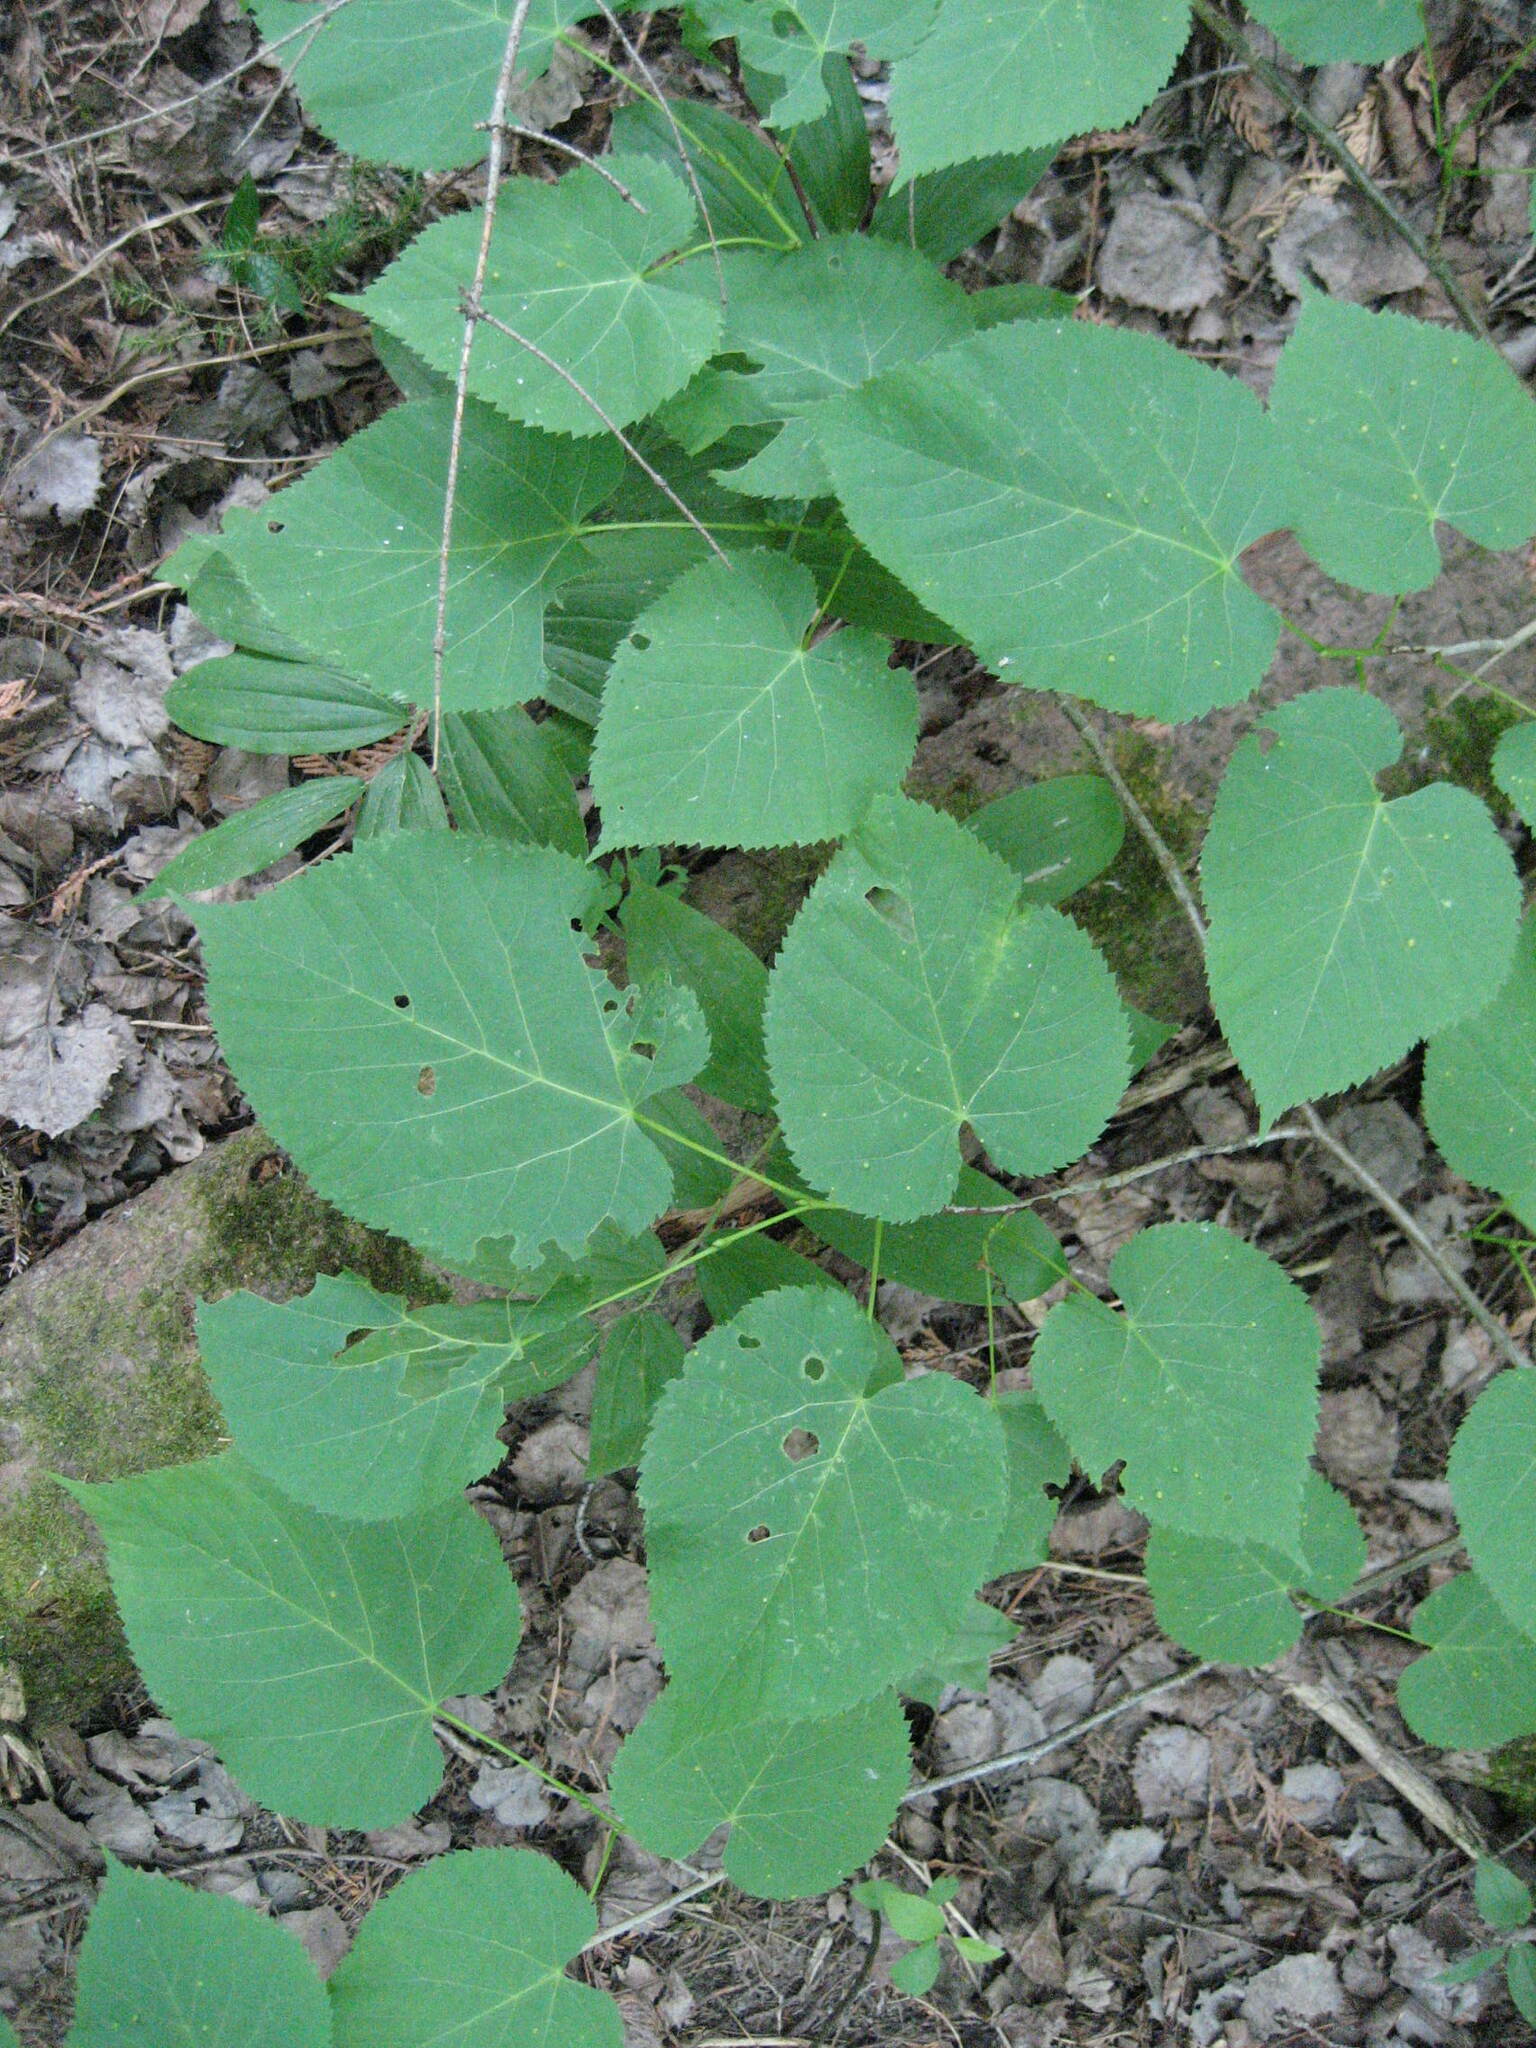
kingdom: Plantae
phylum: Tracheophyta
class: Magnoliopsida
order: Malvales
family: Malvaceae
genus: Tilia
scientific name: Tilia americana
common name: Basswood
